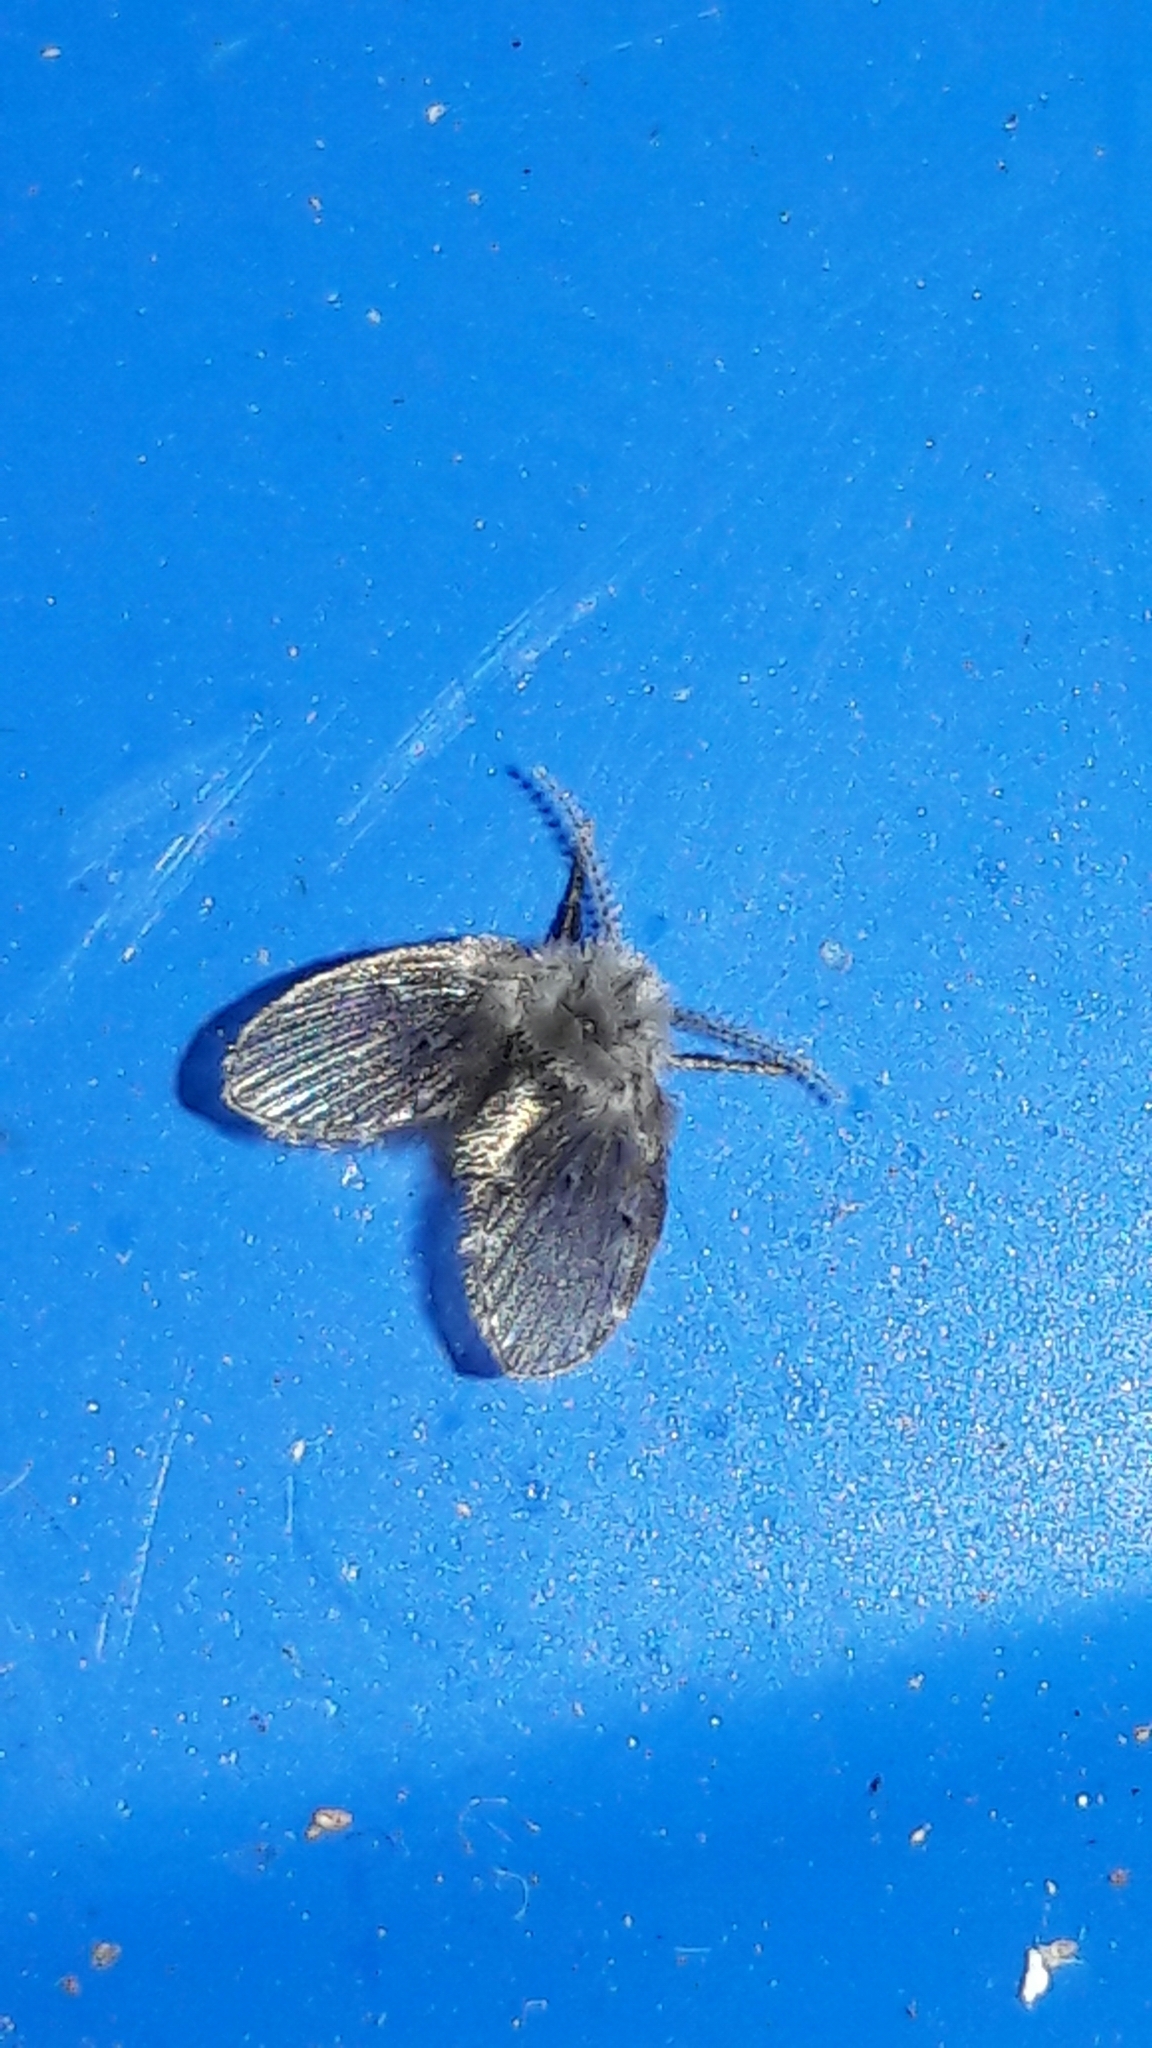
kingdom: Animalia
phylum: Arthropoda
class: Insecta
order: Diptera
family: Psychodidae
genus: Clogmia
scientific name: Clogmia albipunctatus
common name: White-spotted moth fly
